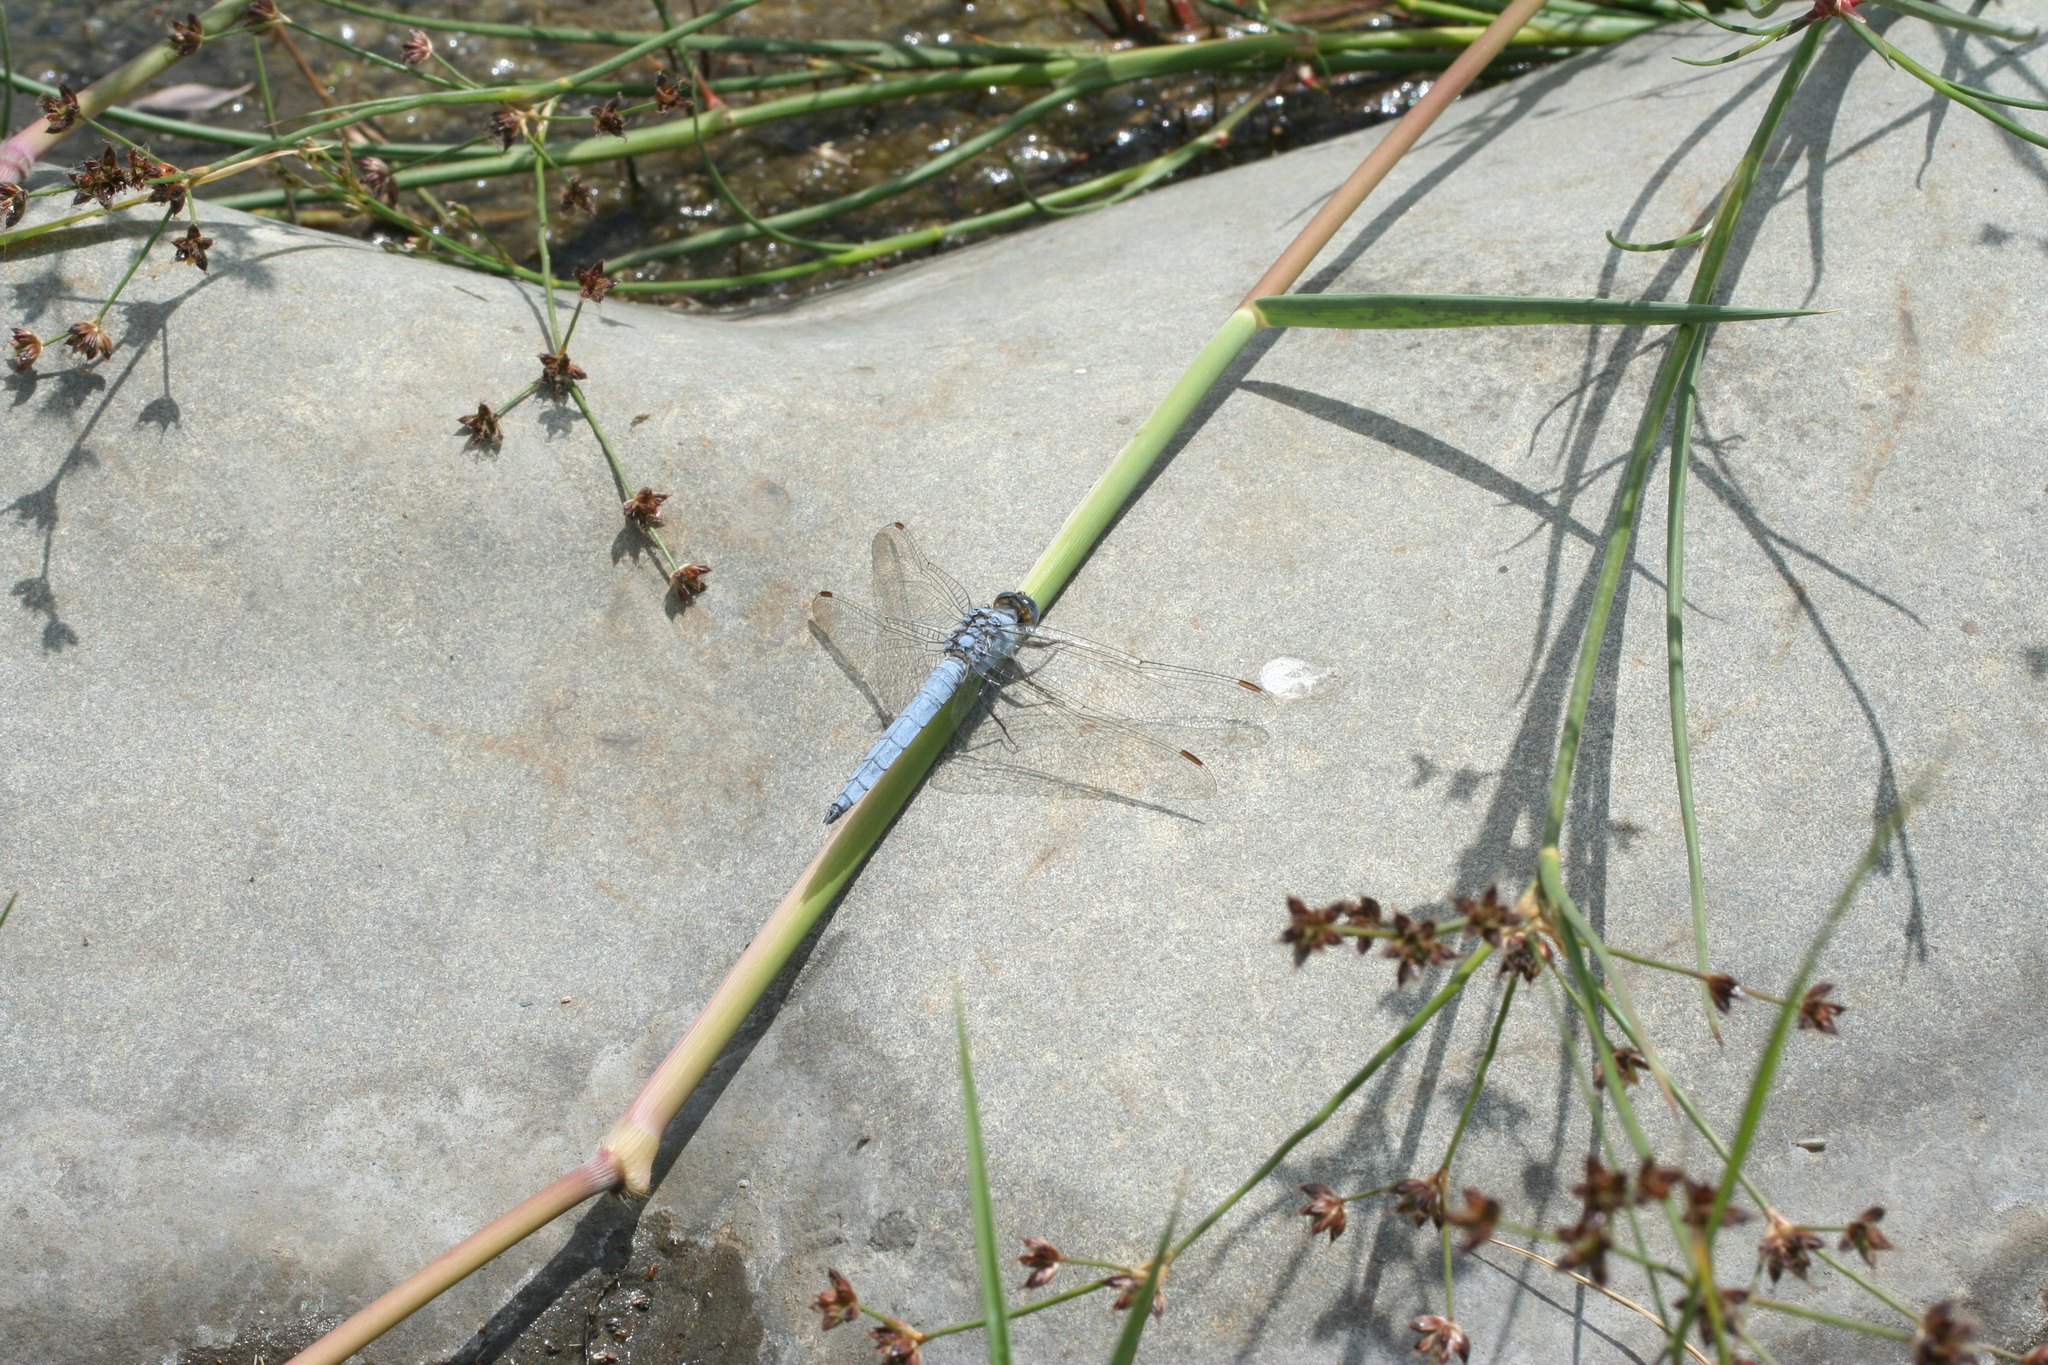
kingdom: Plantae
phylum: Tracheophyta
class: Liliopsida
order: Poales
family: Juncaceae
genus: Juncus
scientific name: Juncus articulatus
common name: Jointed rush
